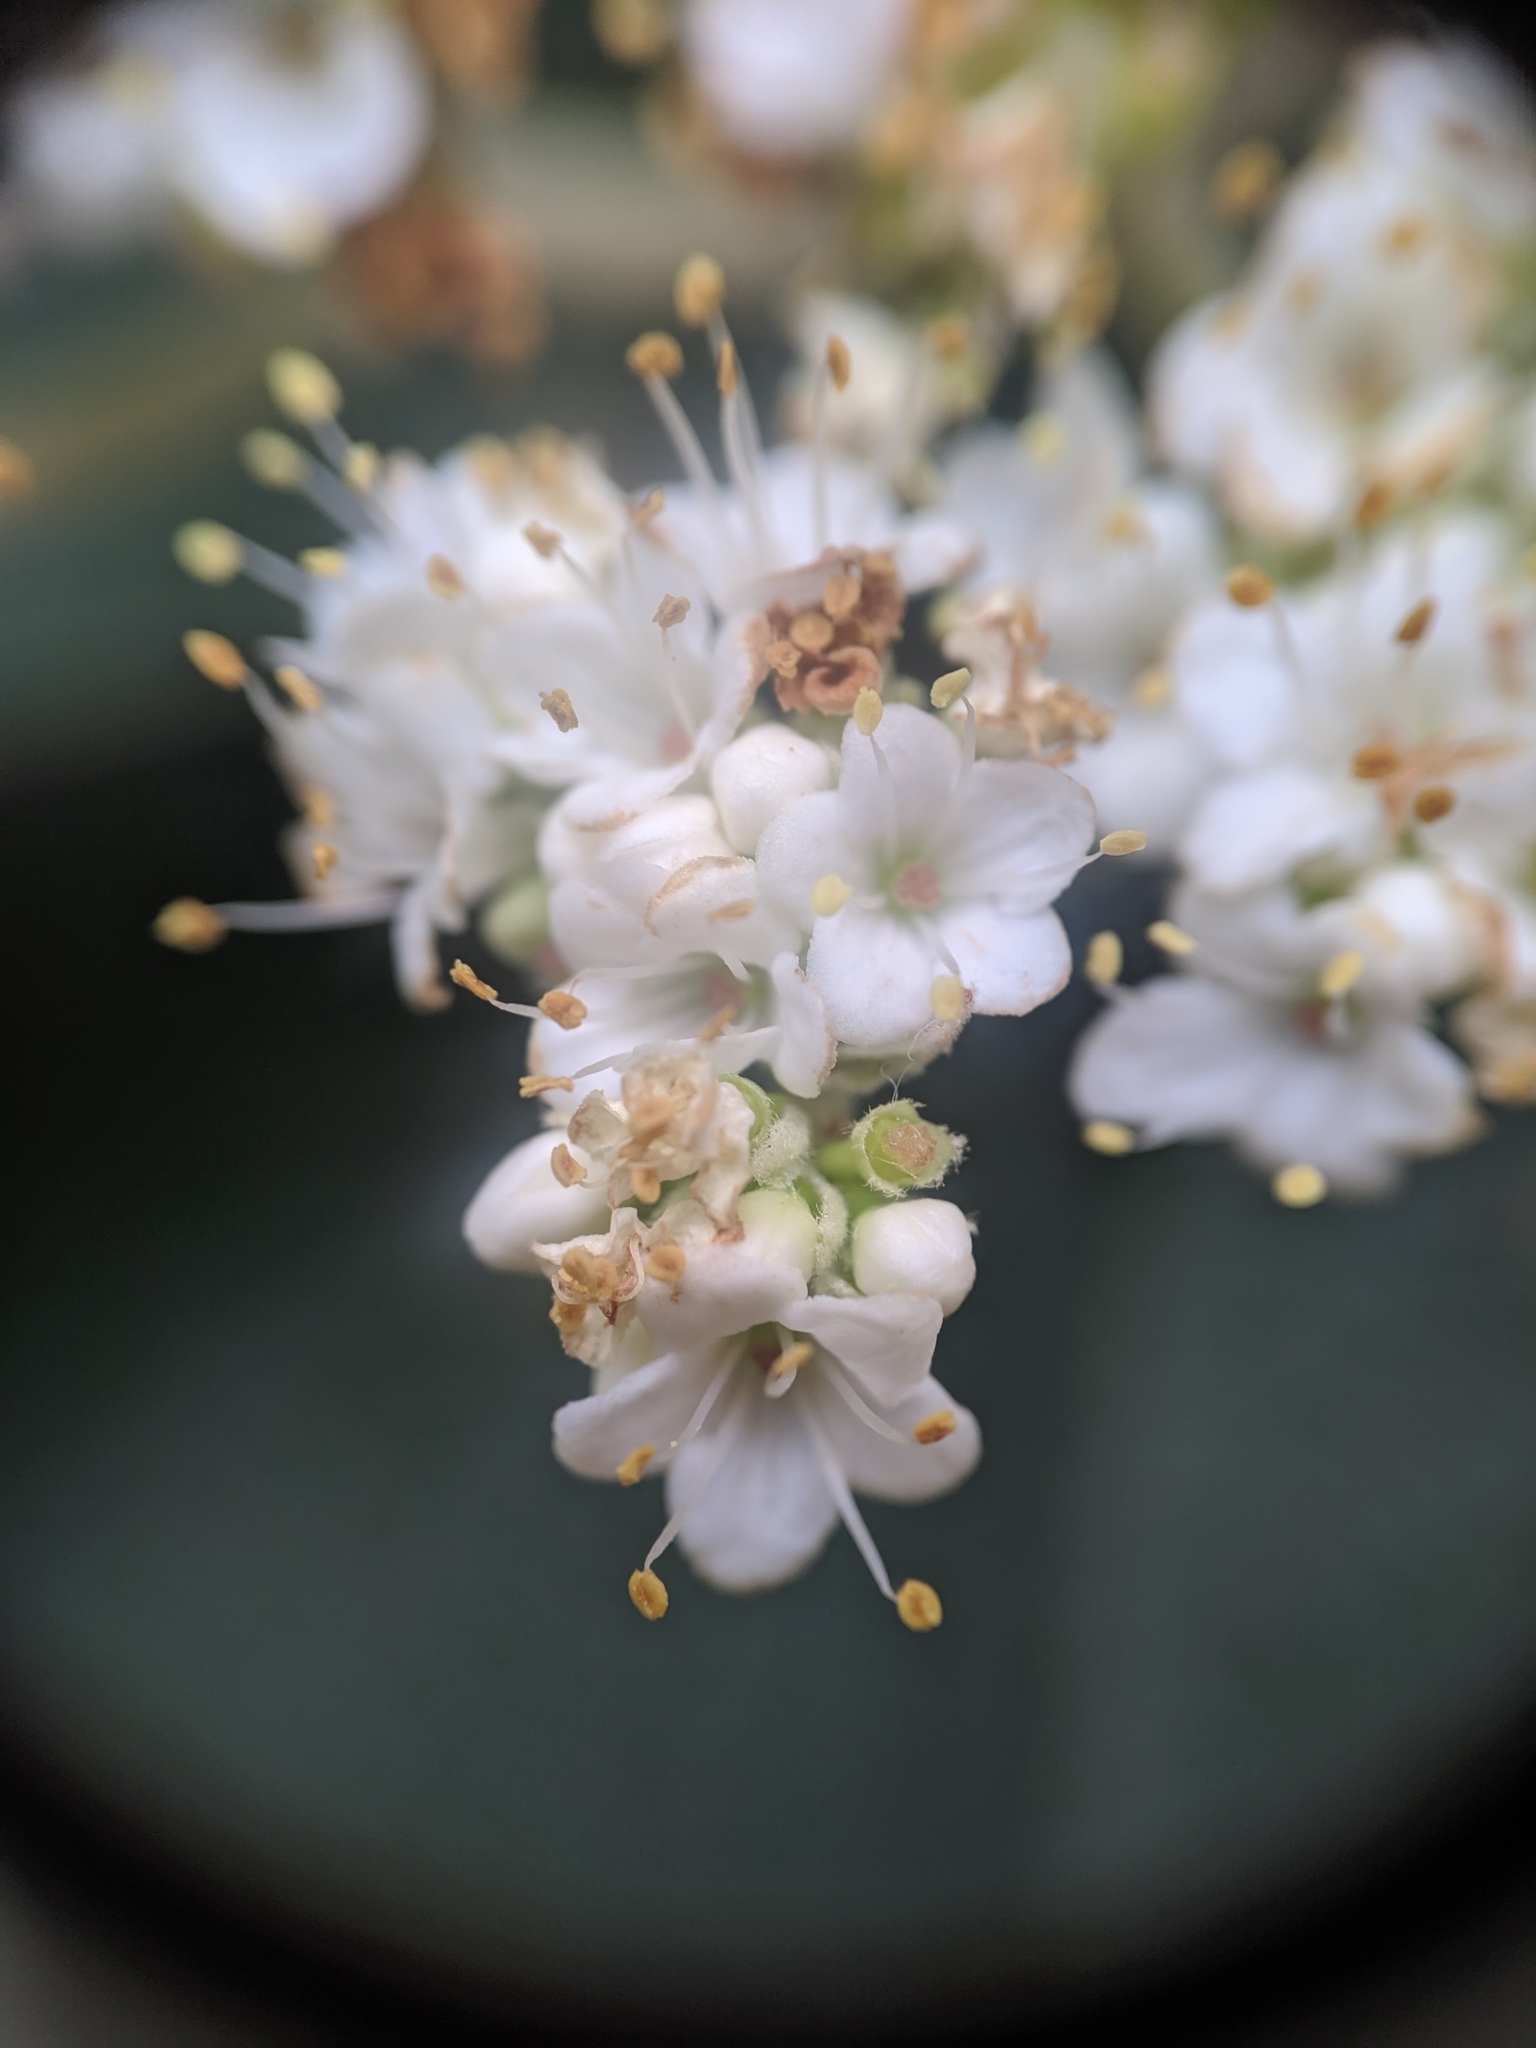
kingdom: Plantae
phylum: Tracheophyta
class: Magnoliopsida
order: Dipsacales
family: Viburnaceae
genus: Viburnum
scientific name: Viburnum
